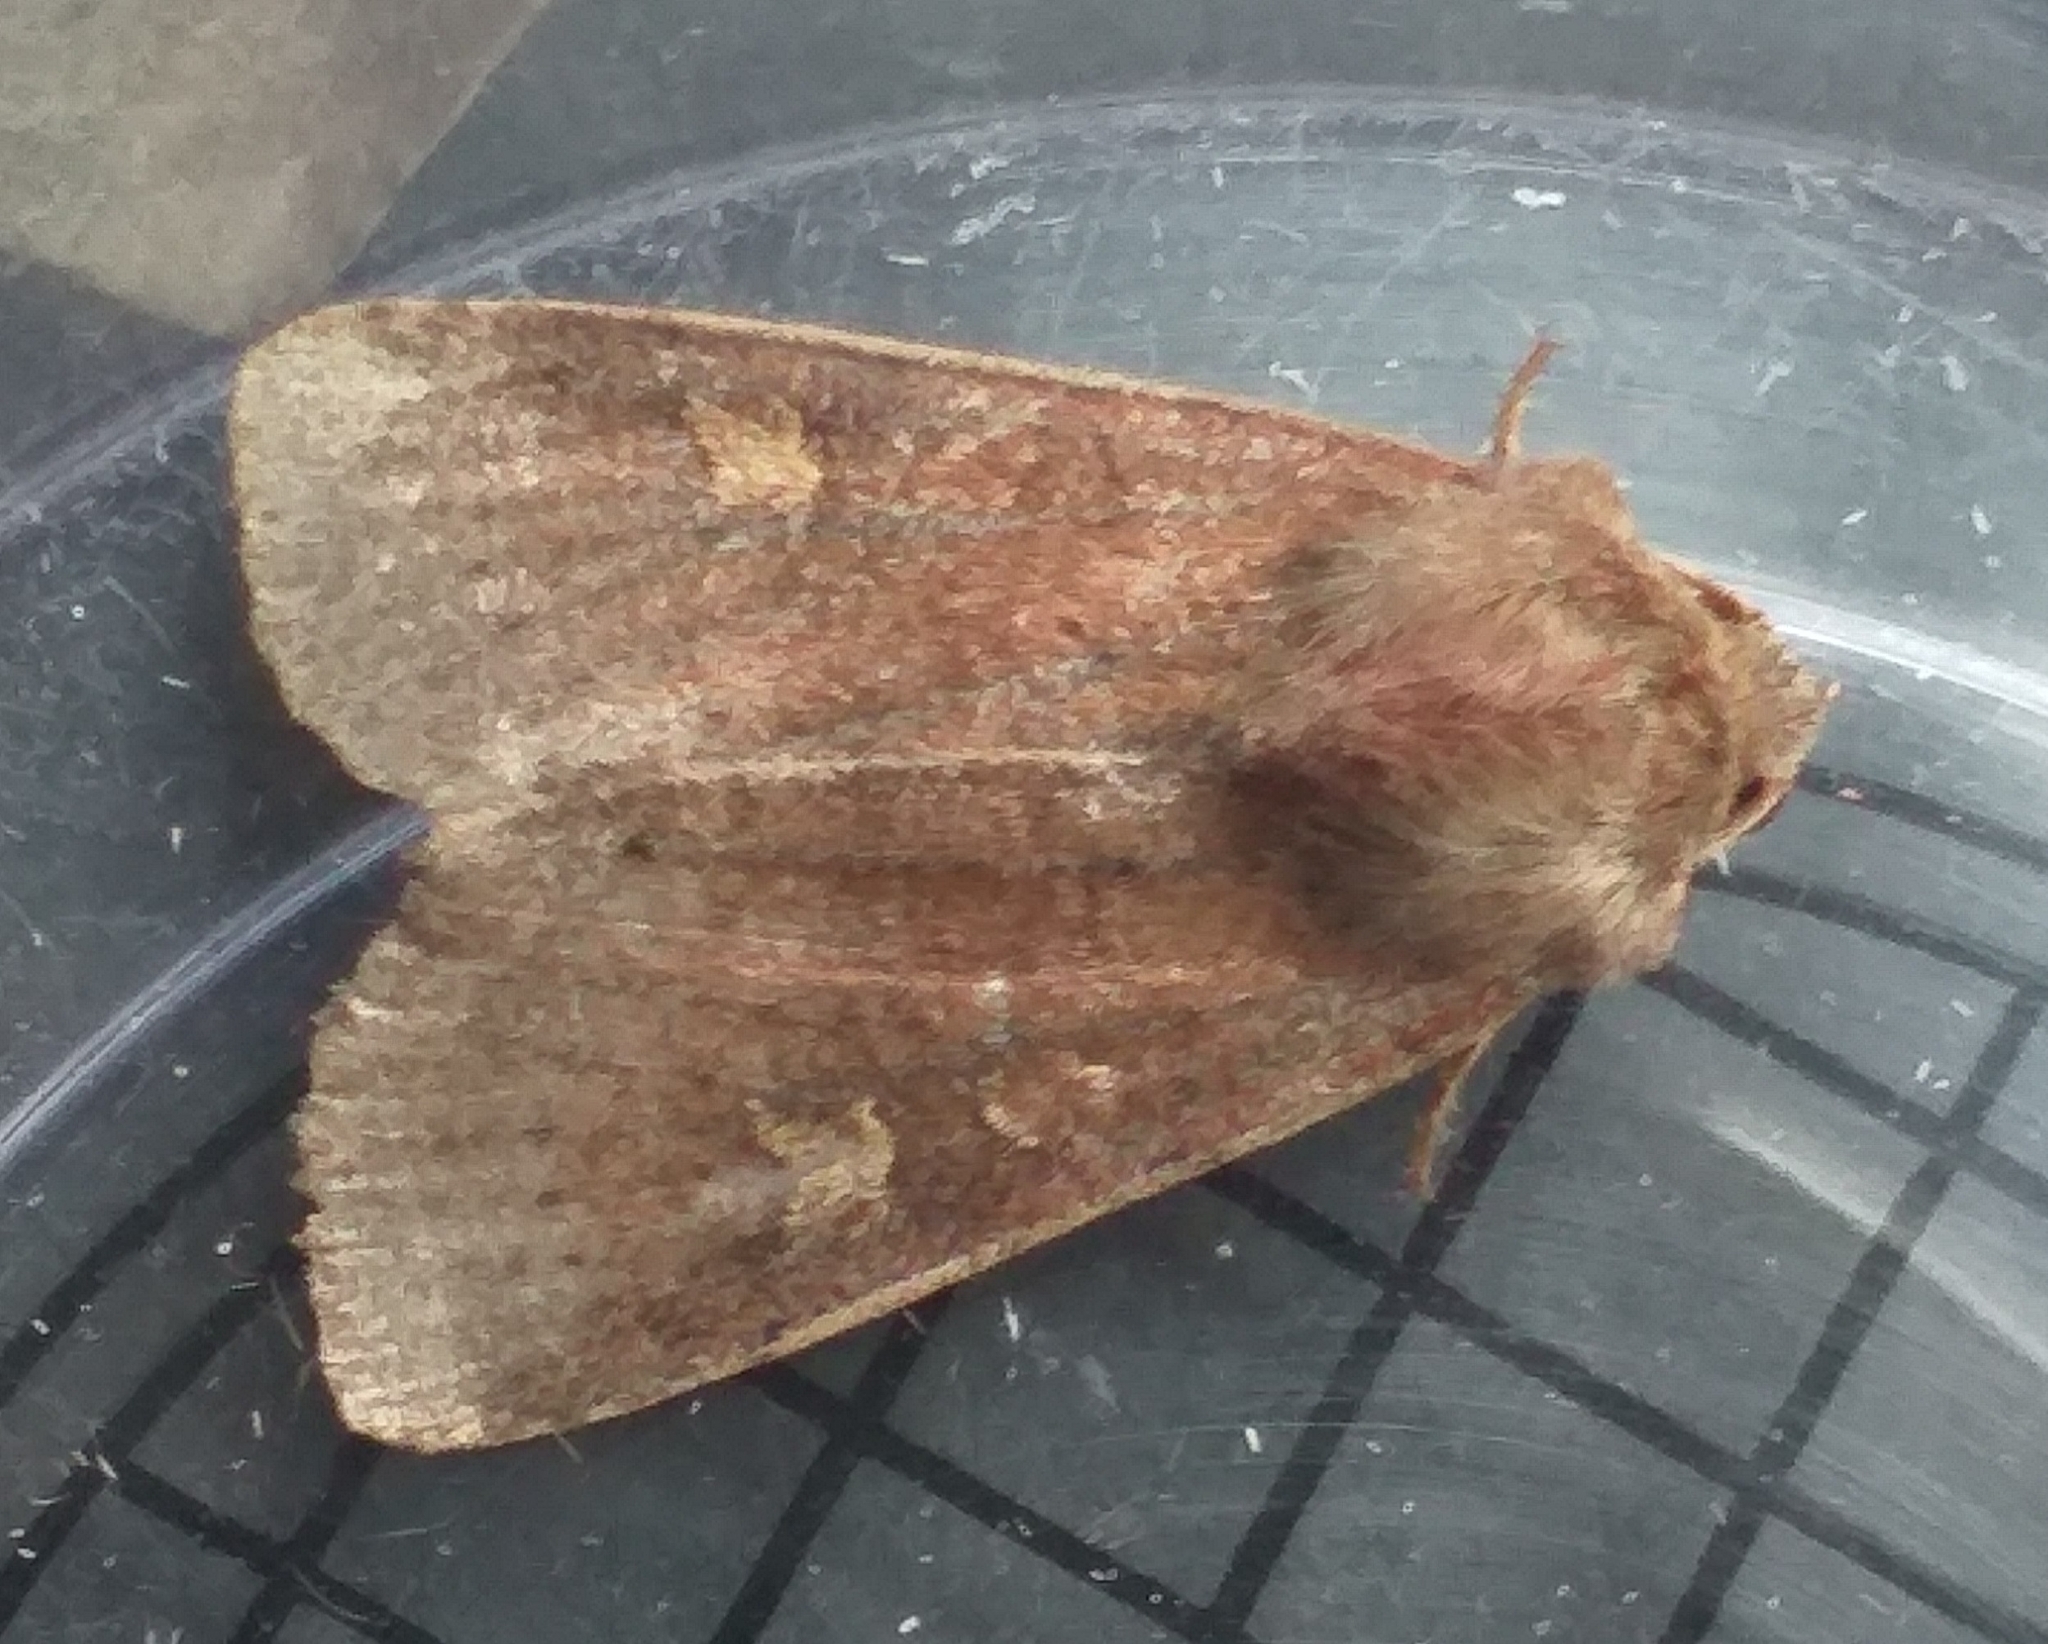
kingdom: Animalia
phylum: Arthropoda
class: Insecta
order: Lepidoptera
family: Noctuidae
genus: Xestia
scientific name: Xestia xanthographa
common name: Square-spot rustic
